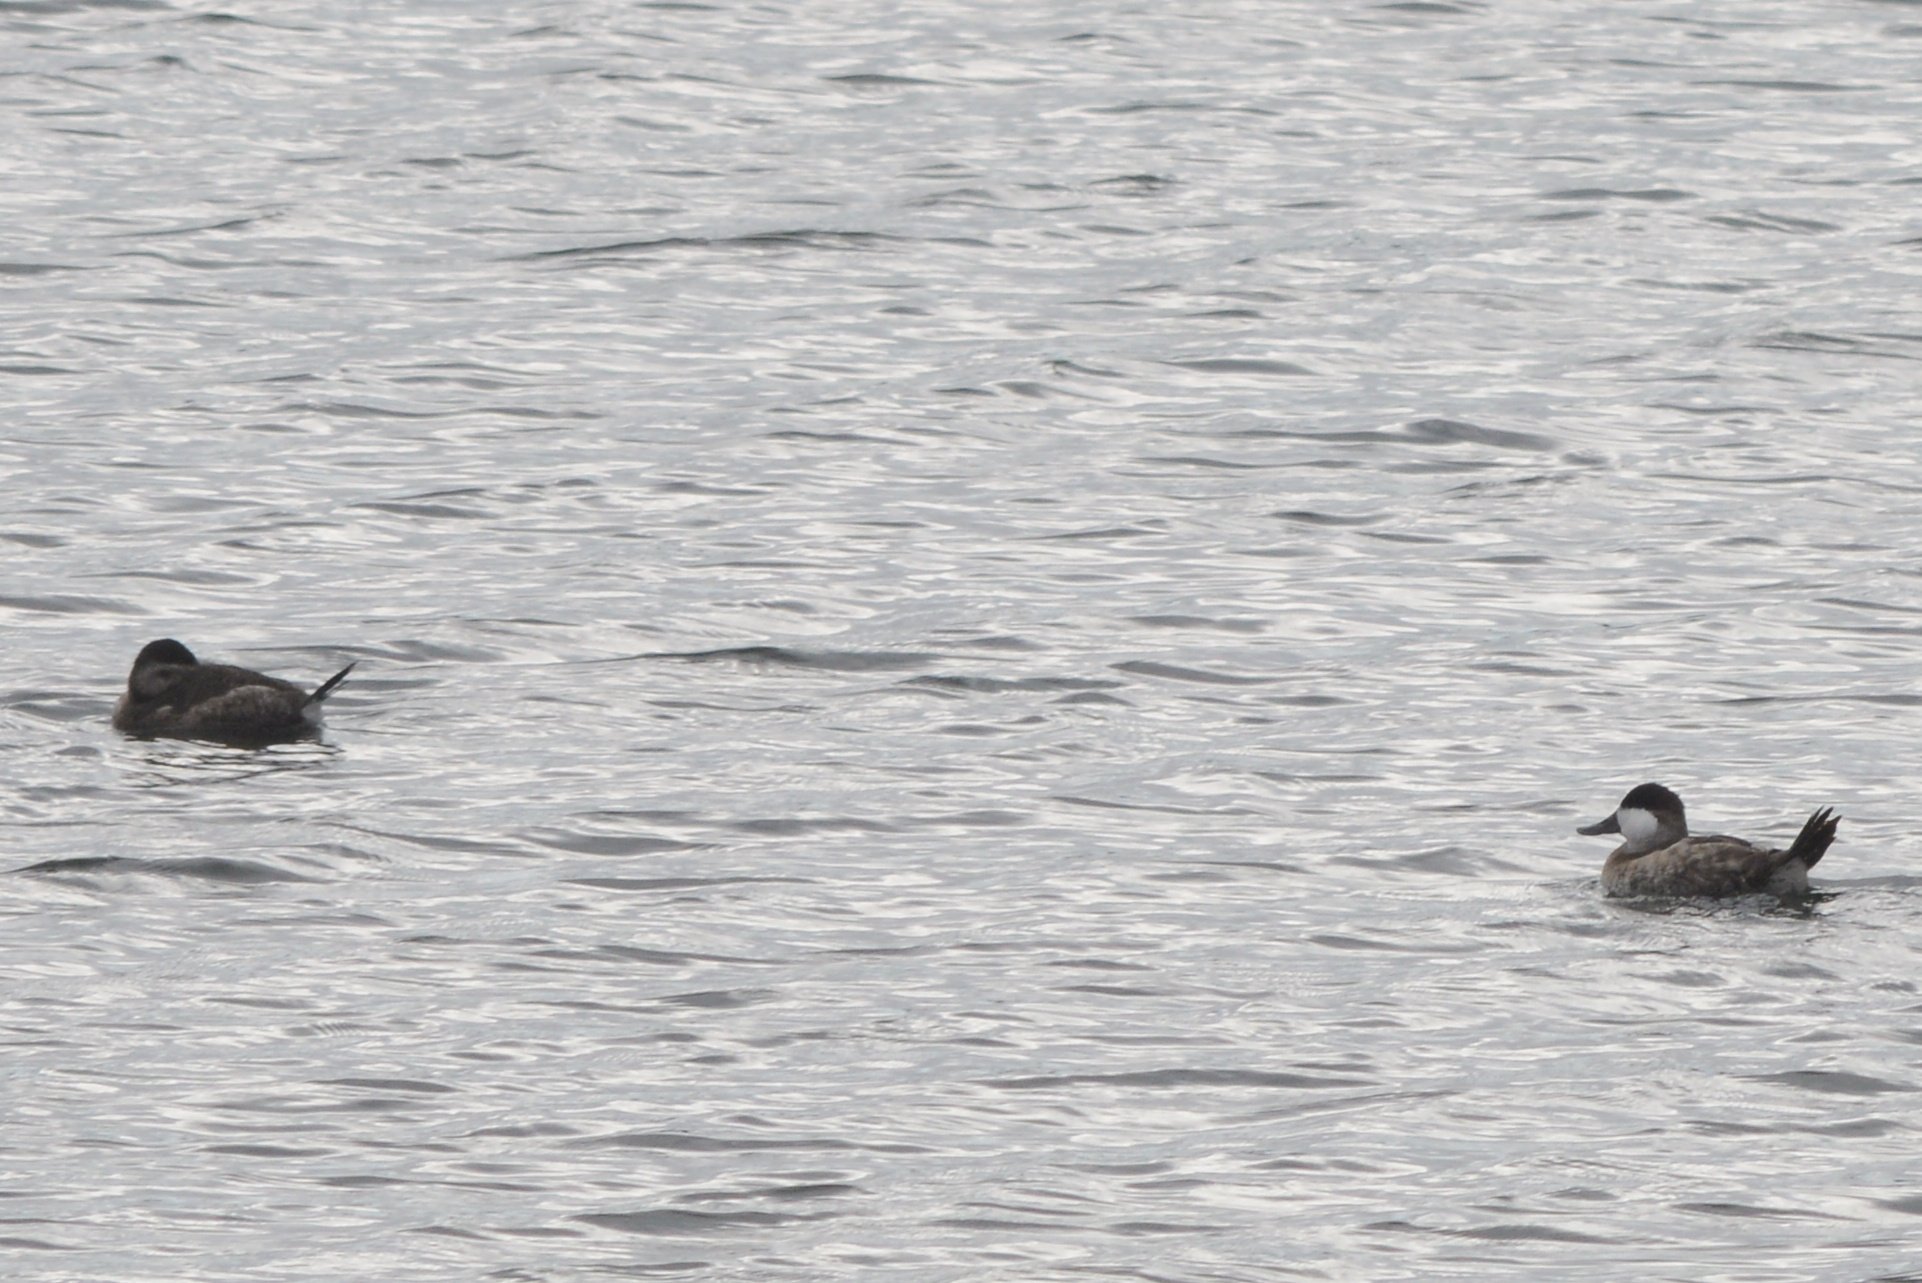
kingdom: Animalia
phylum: Chordata
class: Aves
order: Anseriformes
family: Anatidae
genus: Oxyura
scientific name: Oxyura jamaicensis
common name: Ruddy duck
